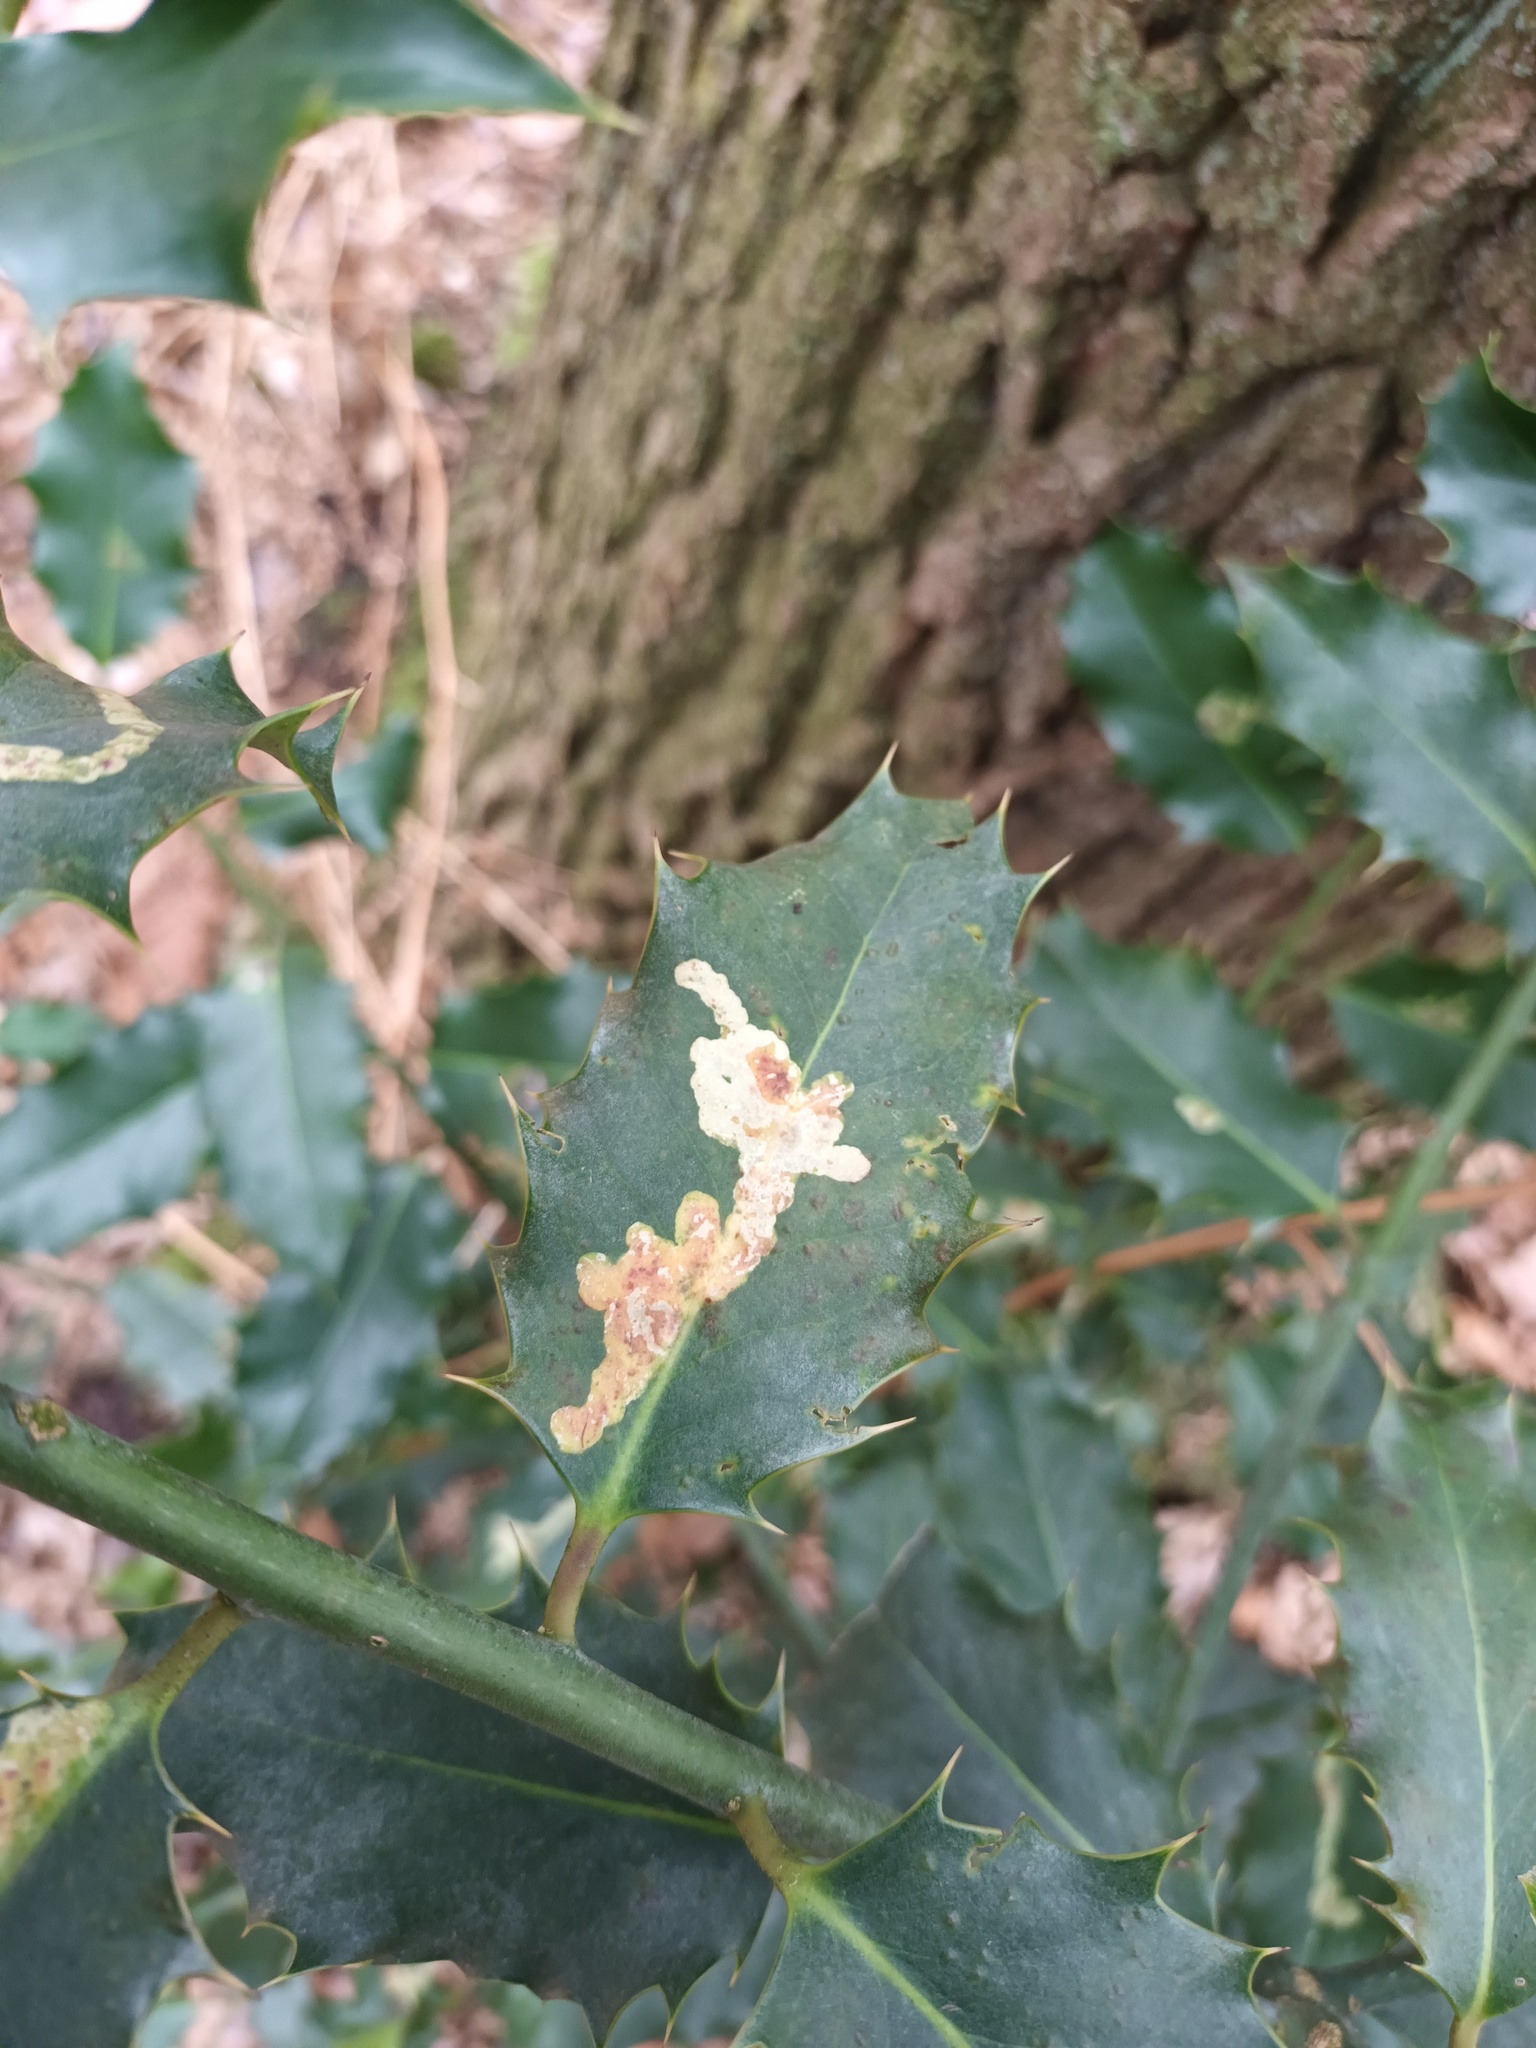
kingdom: Animalia
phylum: Arthropoda
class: Insecta
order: Diptera
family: Agromyzidae
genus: Phytomyza
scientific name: Phytomyza ilicis
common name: Holly leafminer
